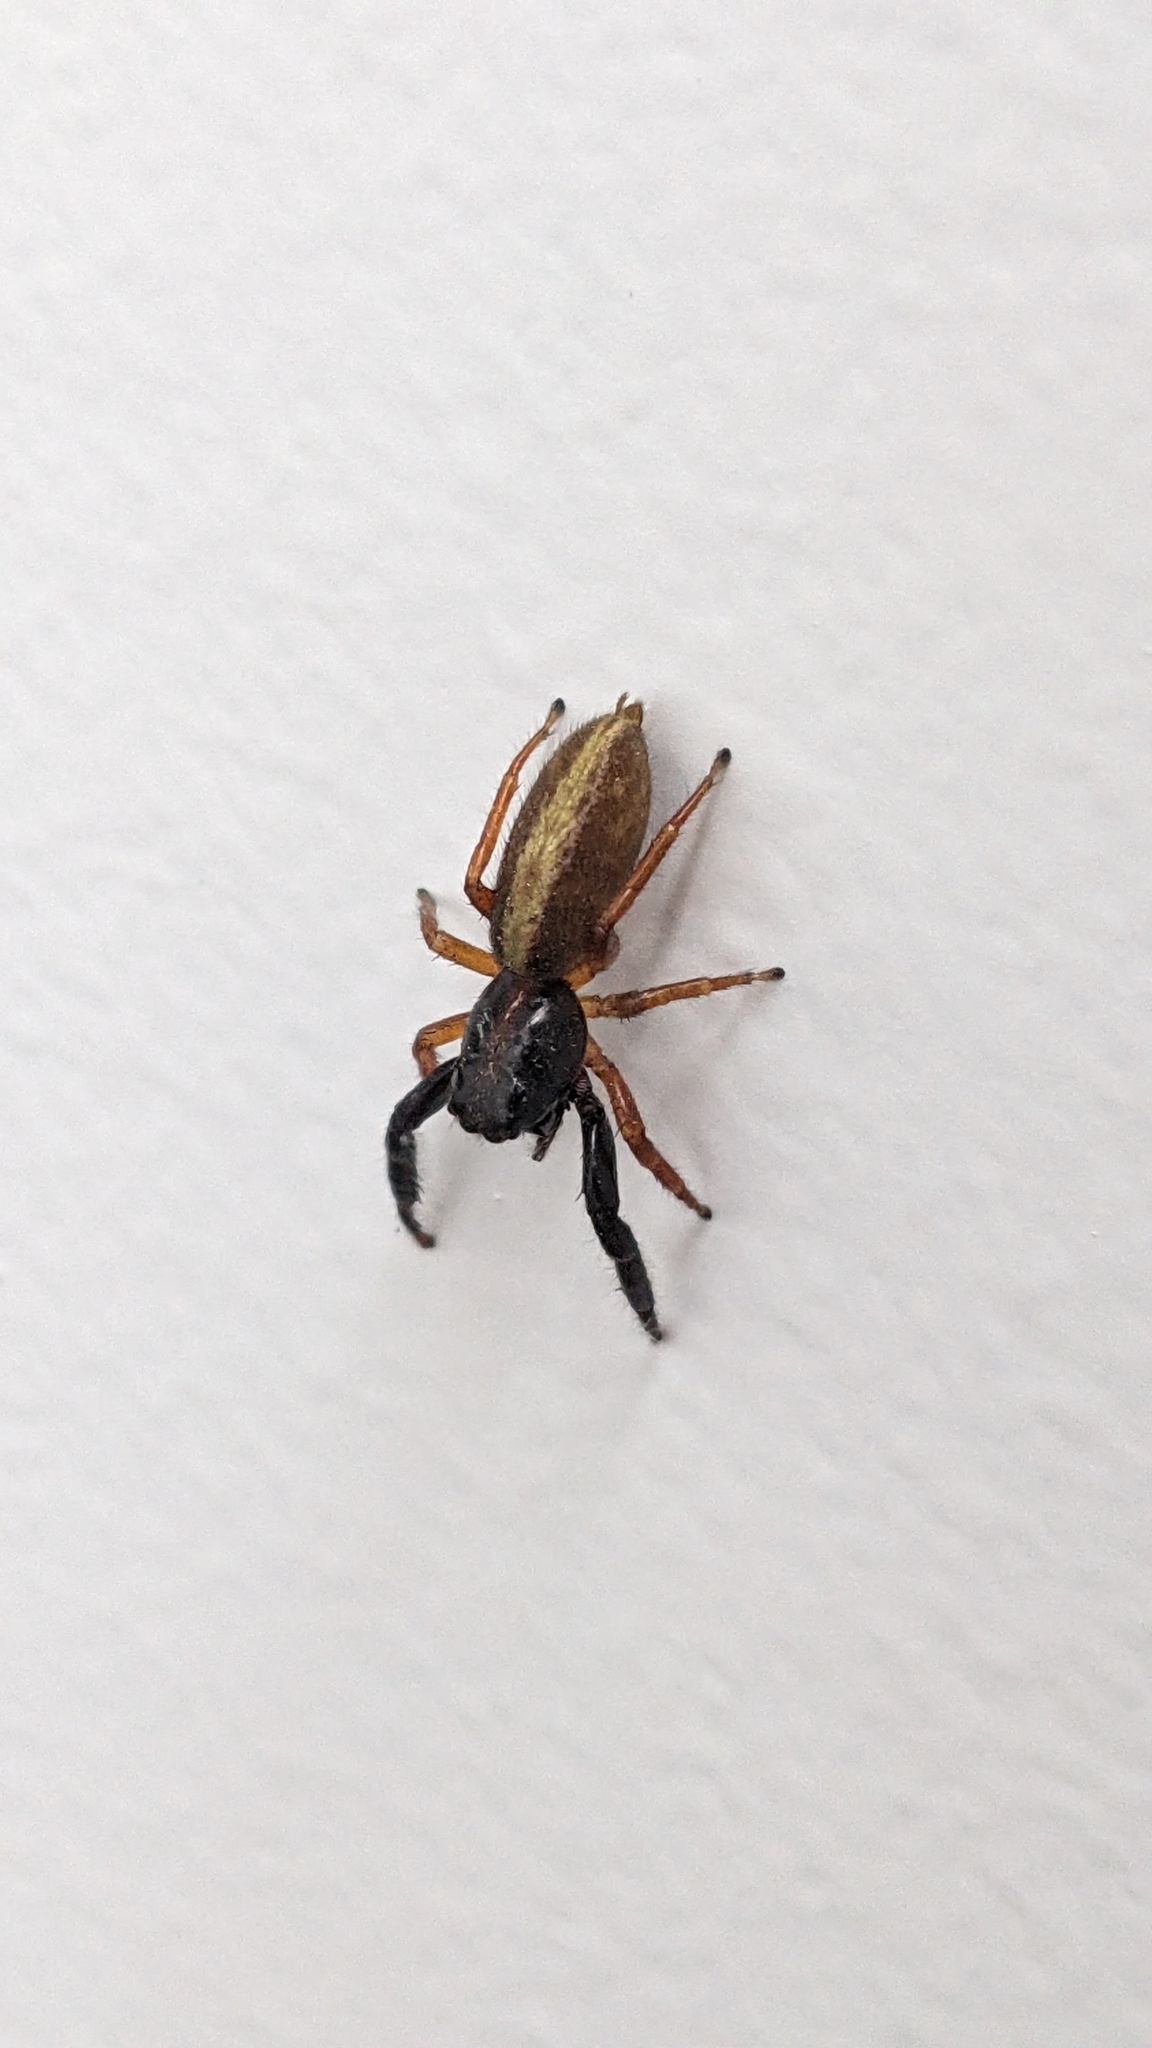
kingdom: Animalia
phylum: Arthropoda
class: Arachnida
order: Araneae
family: Salticidae
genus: Trite
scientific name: Trite planiceps
